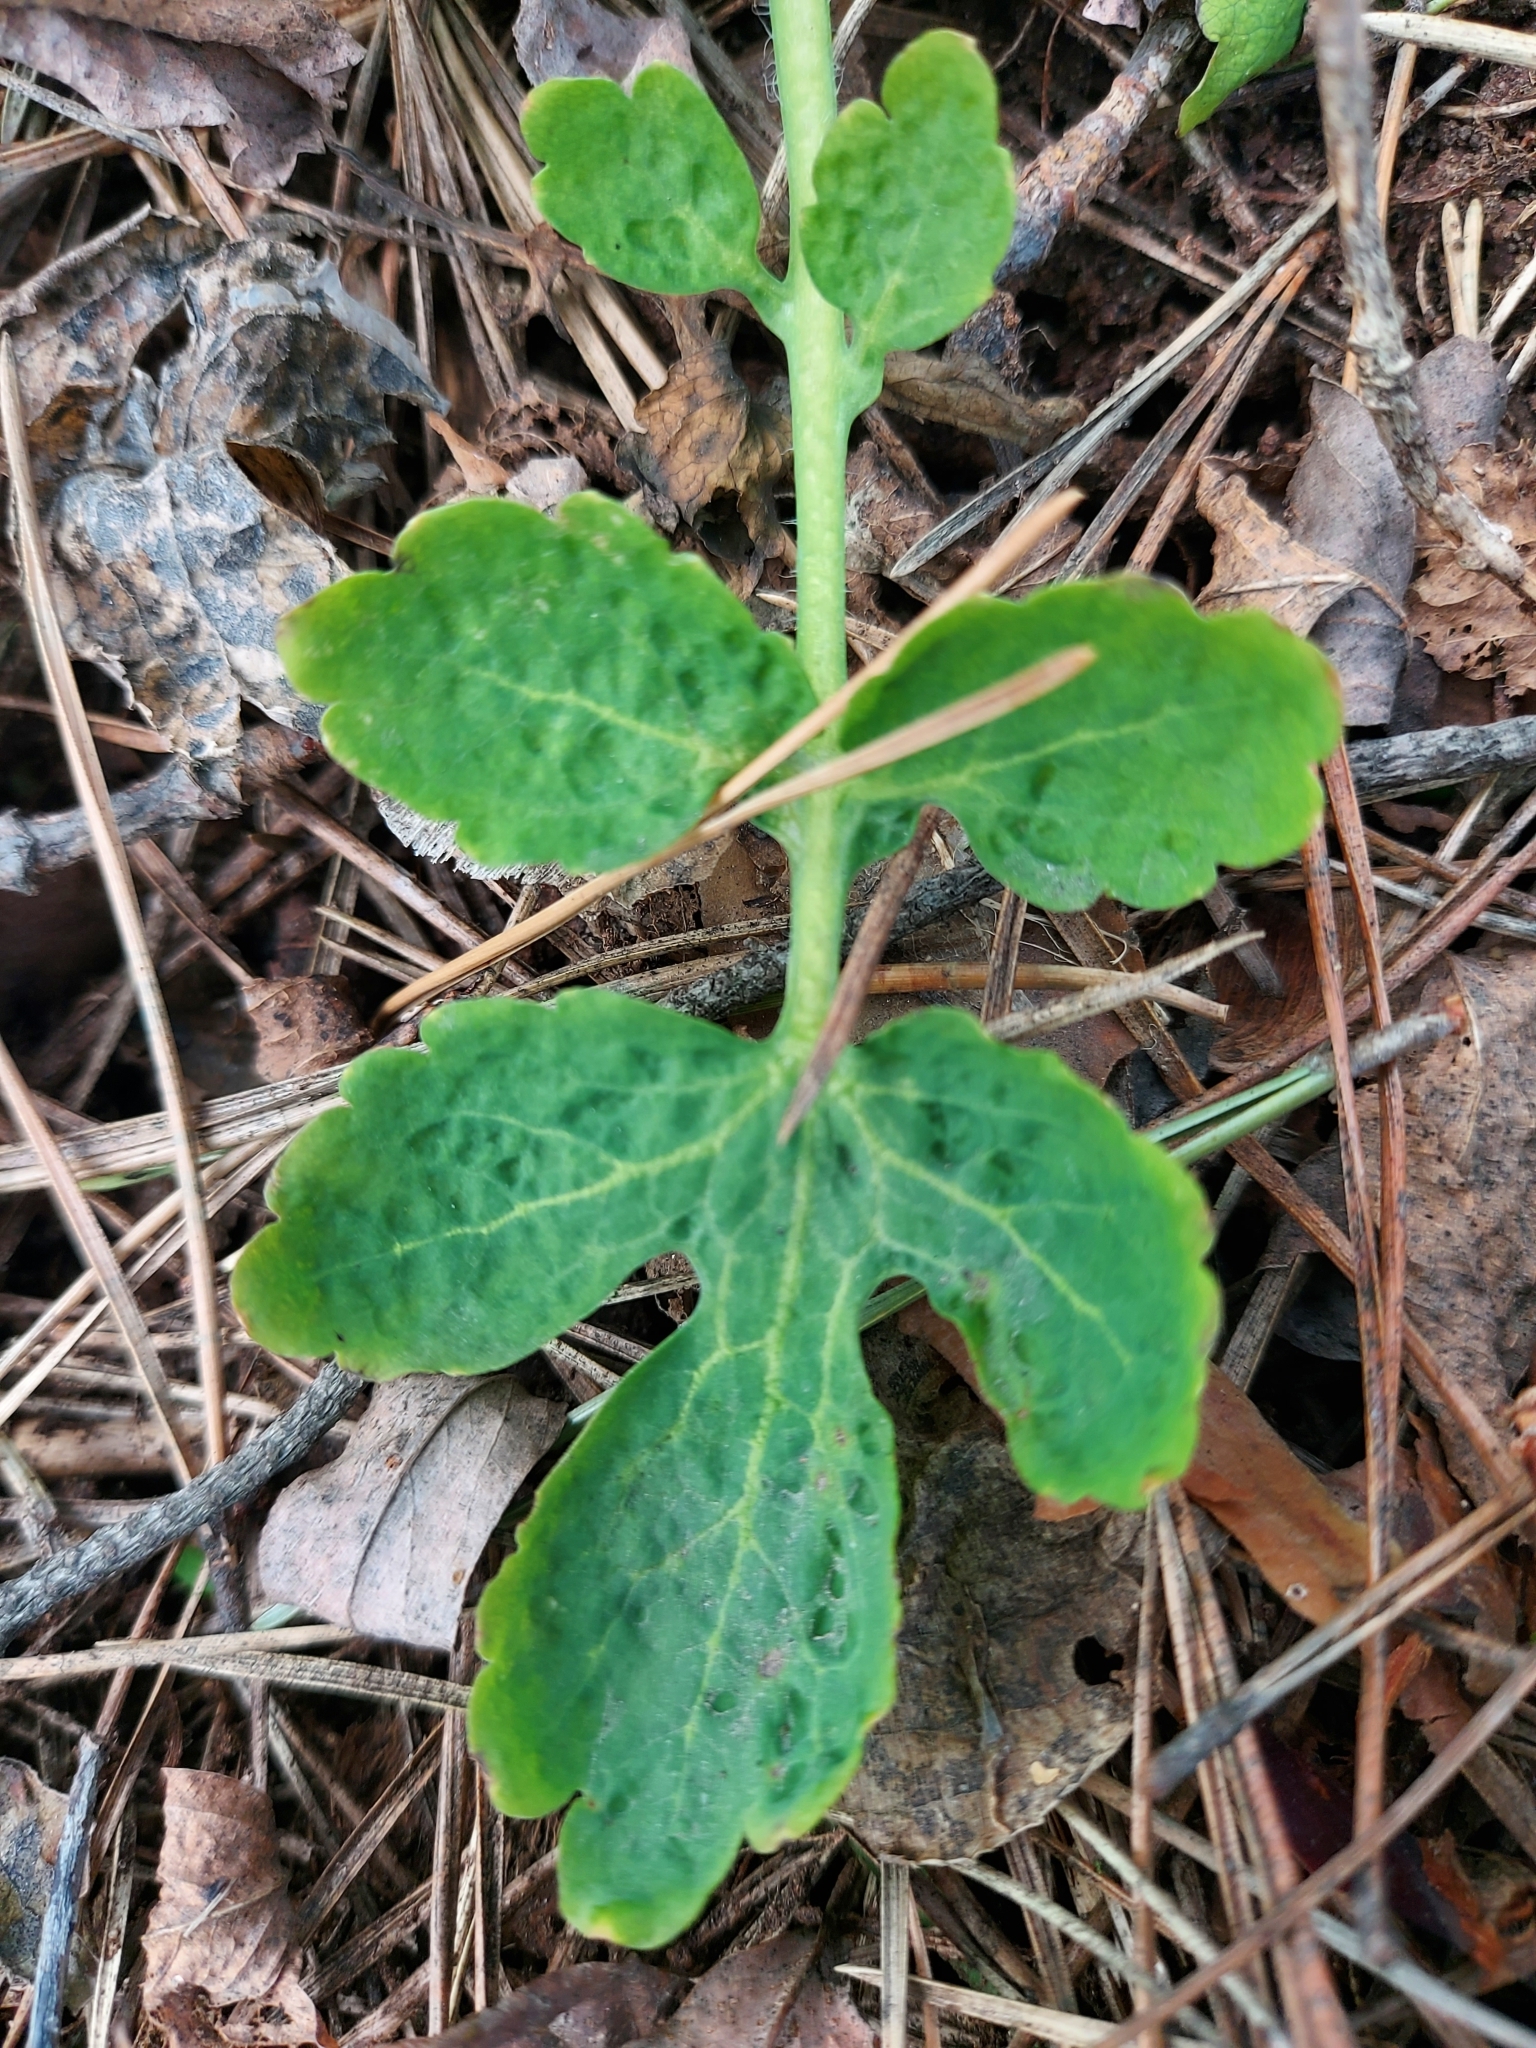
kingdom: Plantae
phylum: Tracheophyta
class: Magnoliopsida
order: Ranunculales
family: Papaveraceae
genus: Chelidonium
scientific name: Chelidonium majus
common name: Greater celandine
